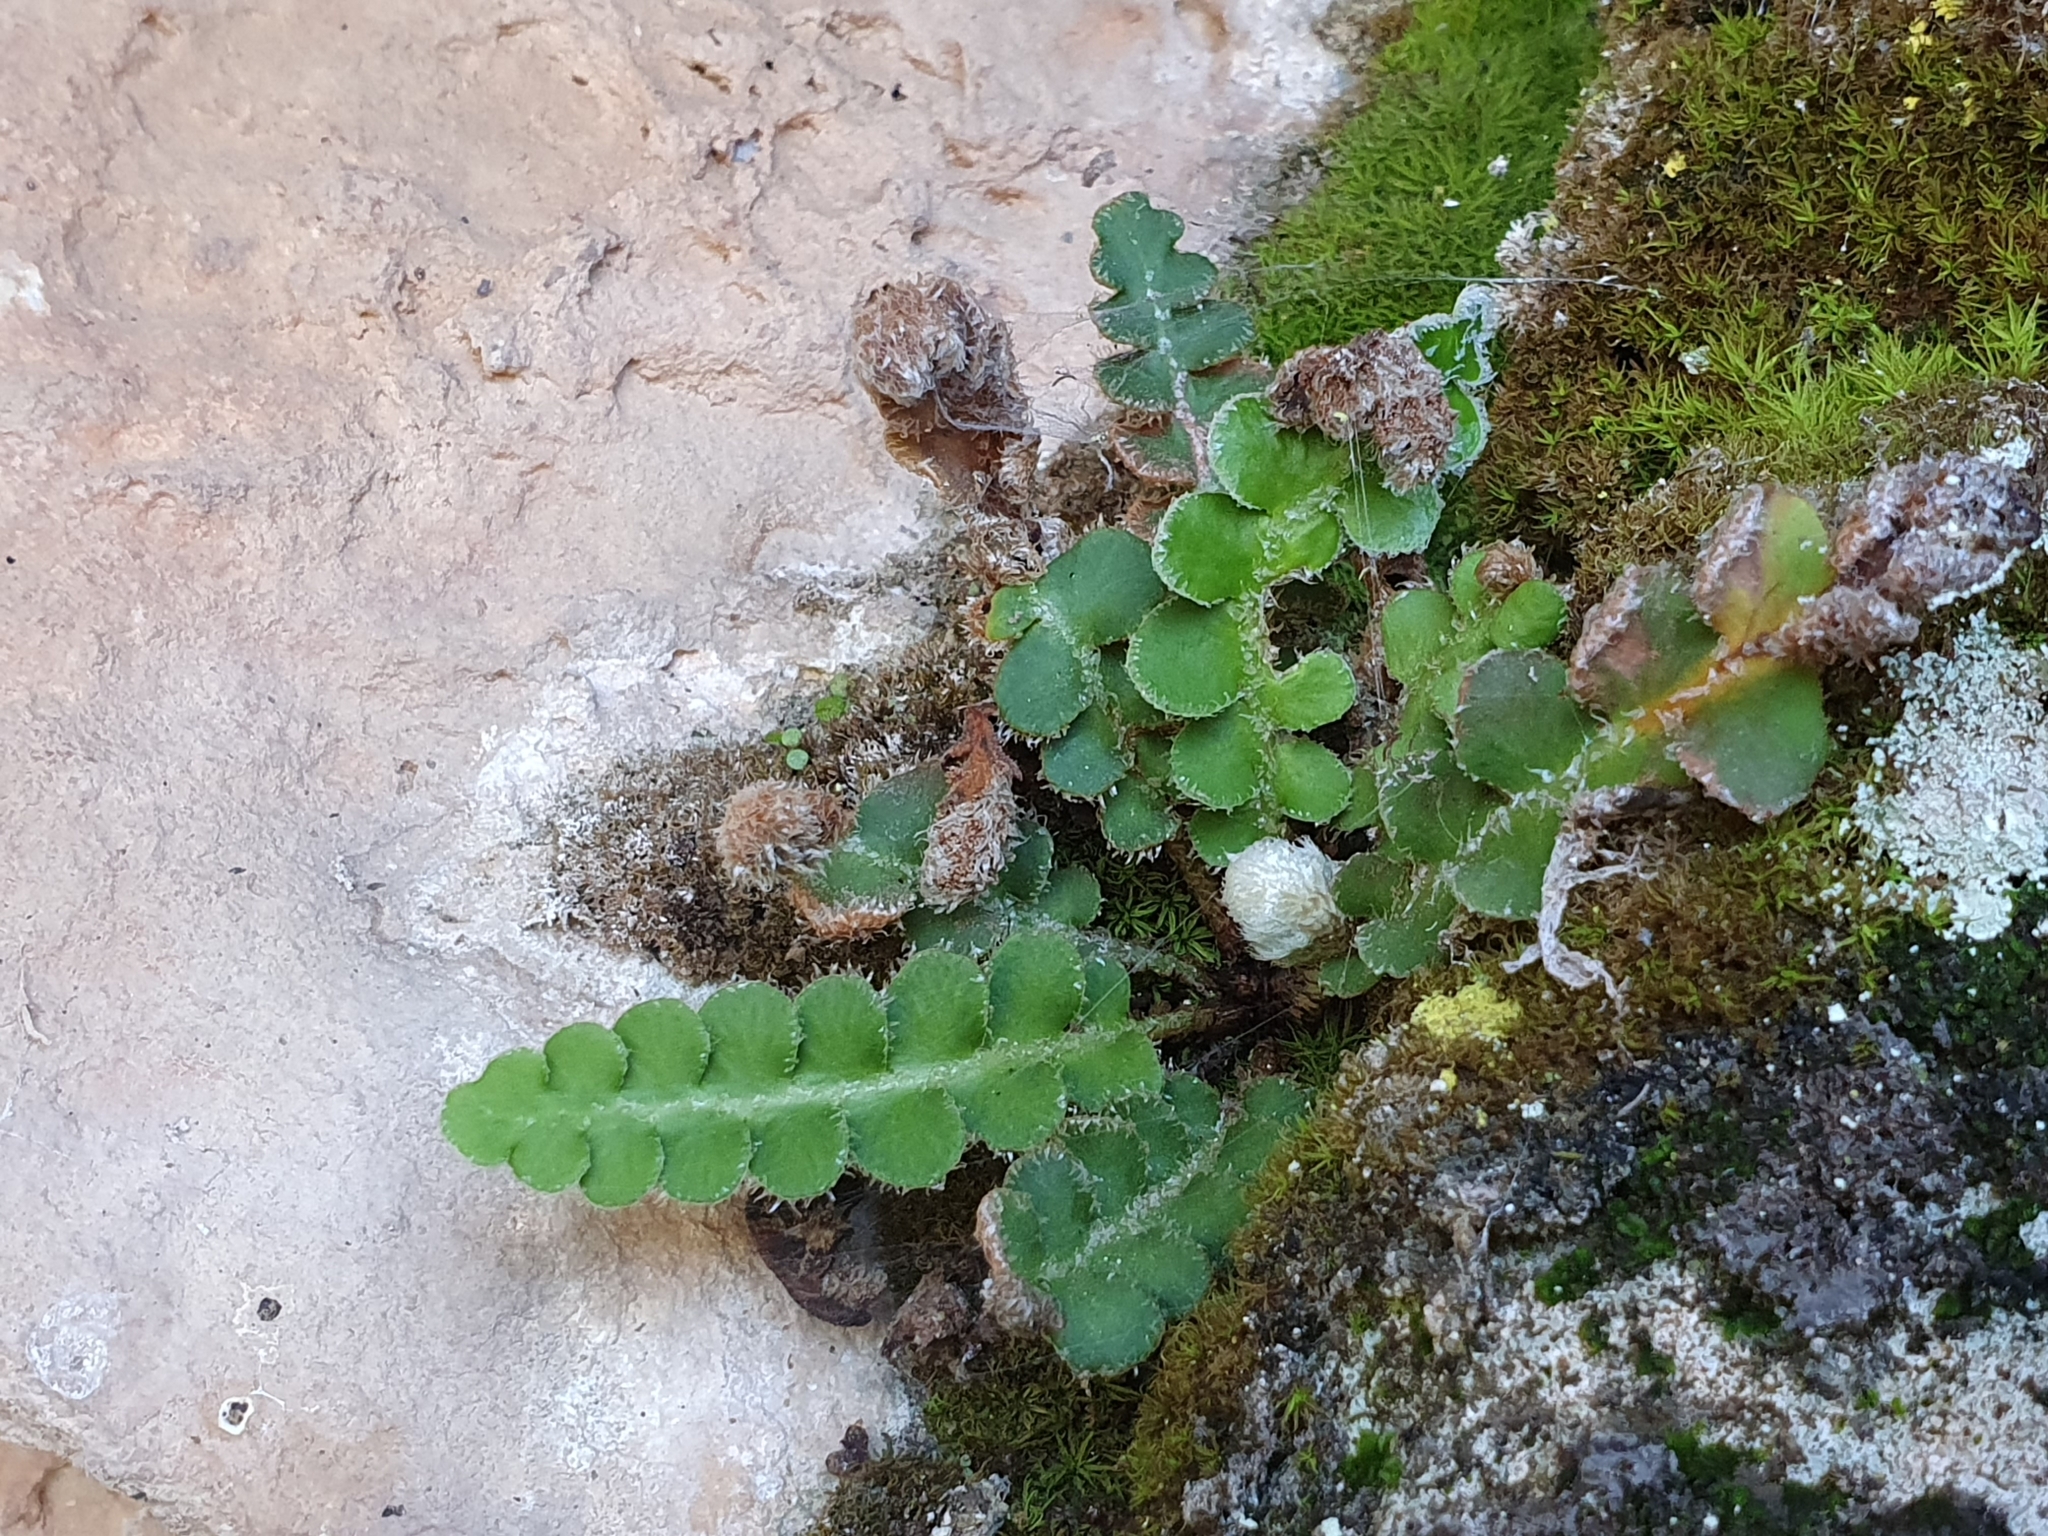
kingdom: Plantae
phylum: Tracheophyta
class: Polypodiopsida
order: Polypodiales
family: Aspleniaceae
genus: Asplenium
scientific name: Asplenium ceterach
